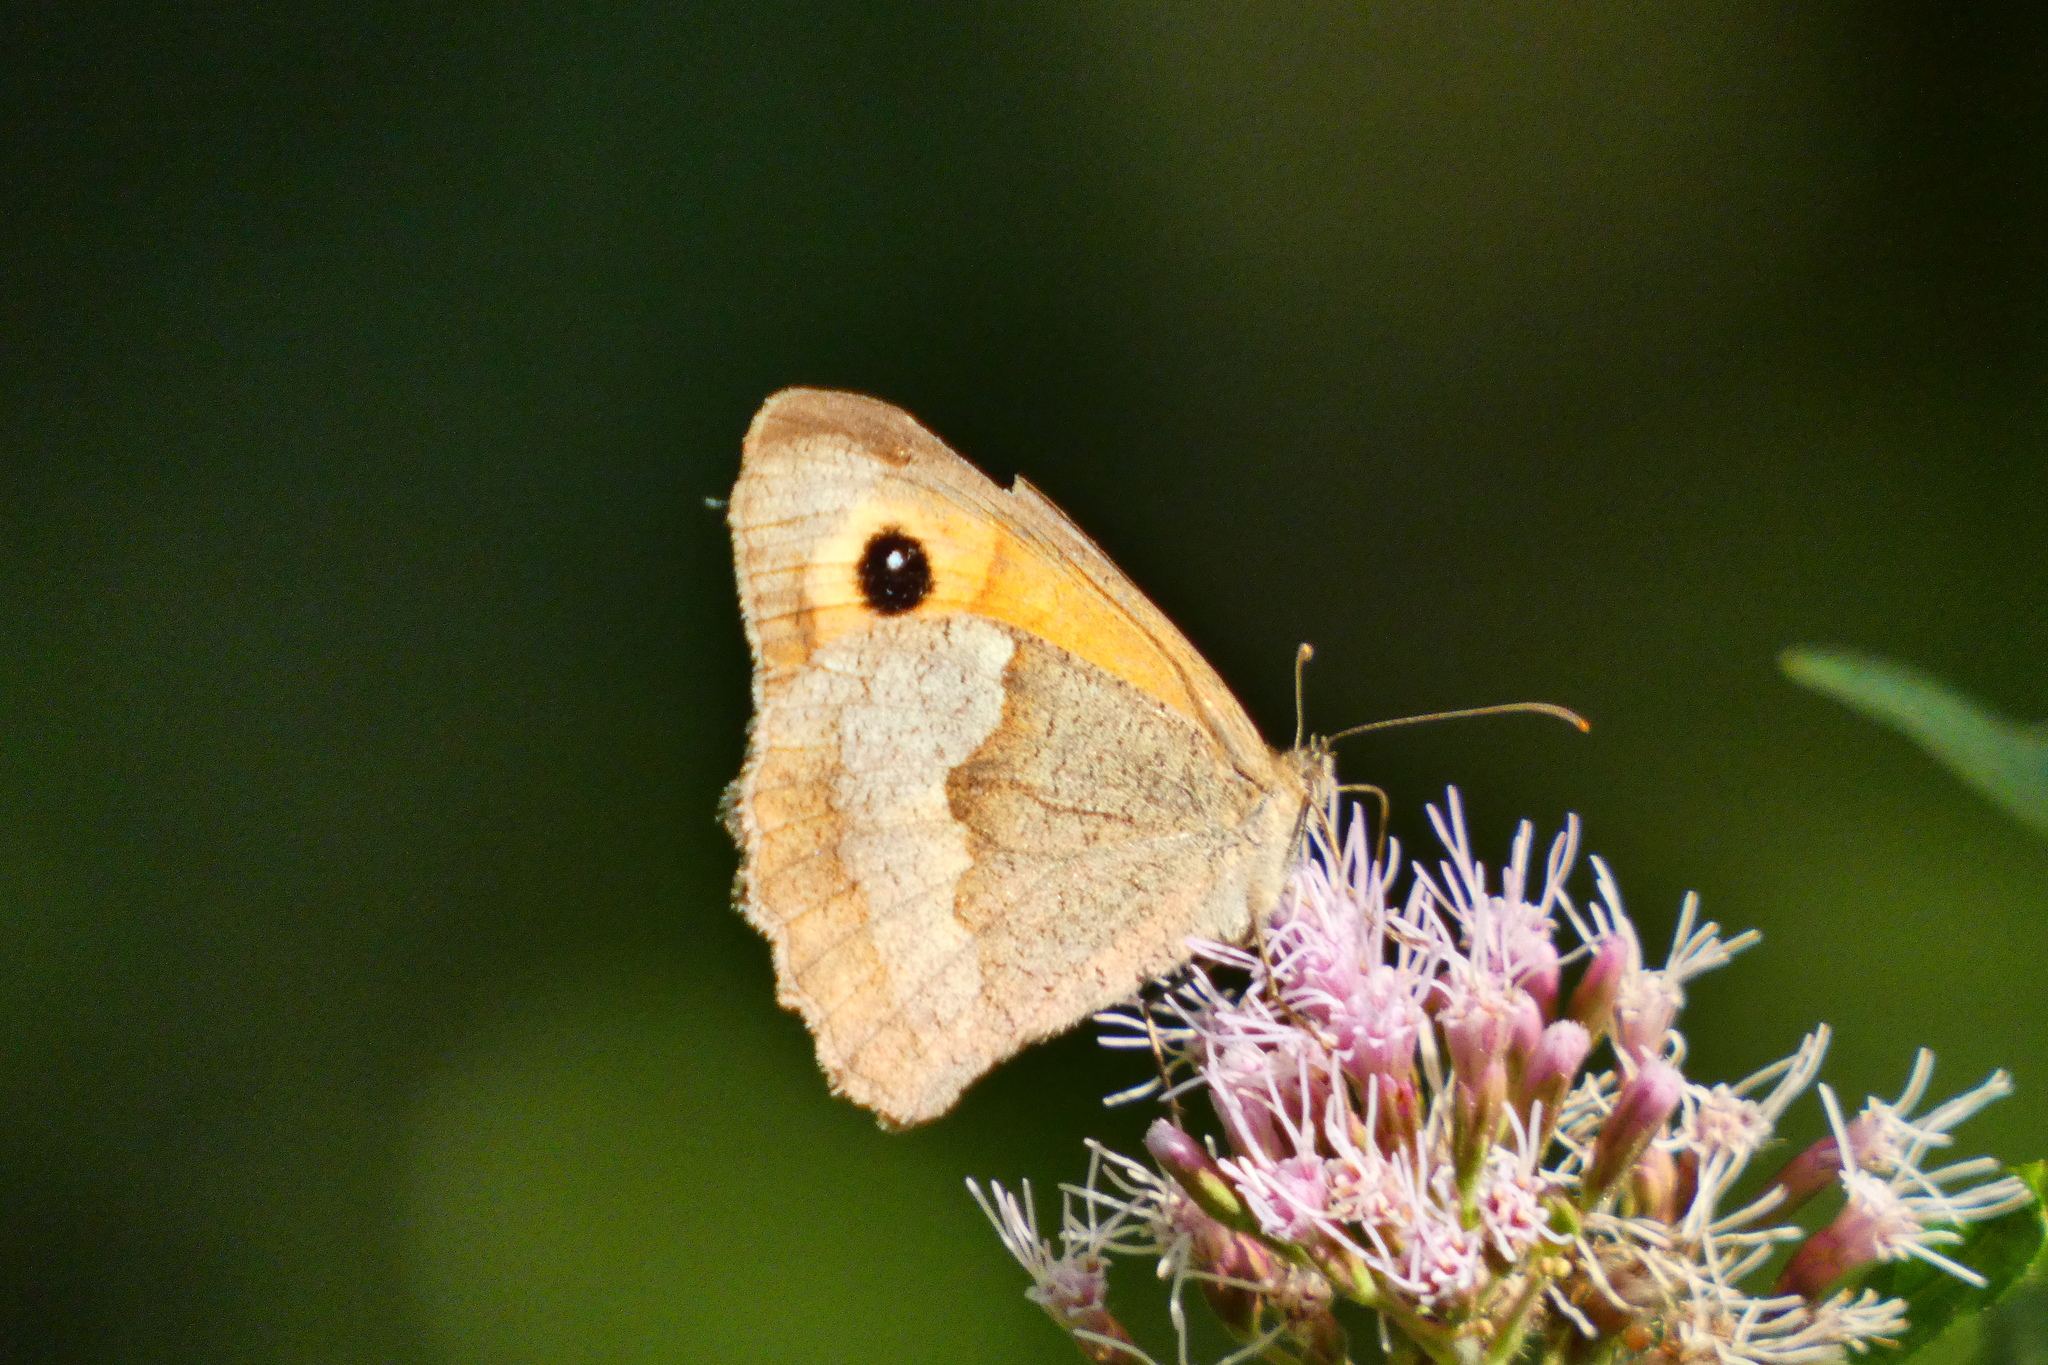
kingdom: Animalia
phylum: Arthropoda
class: Insecta
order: Lepidoptera
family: Nymphalidae
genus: Maniola
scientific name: Maniola jurtina
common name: Meadow brown
